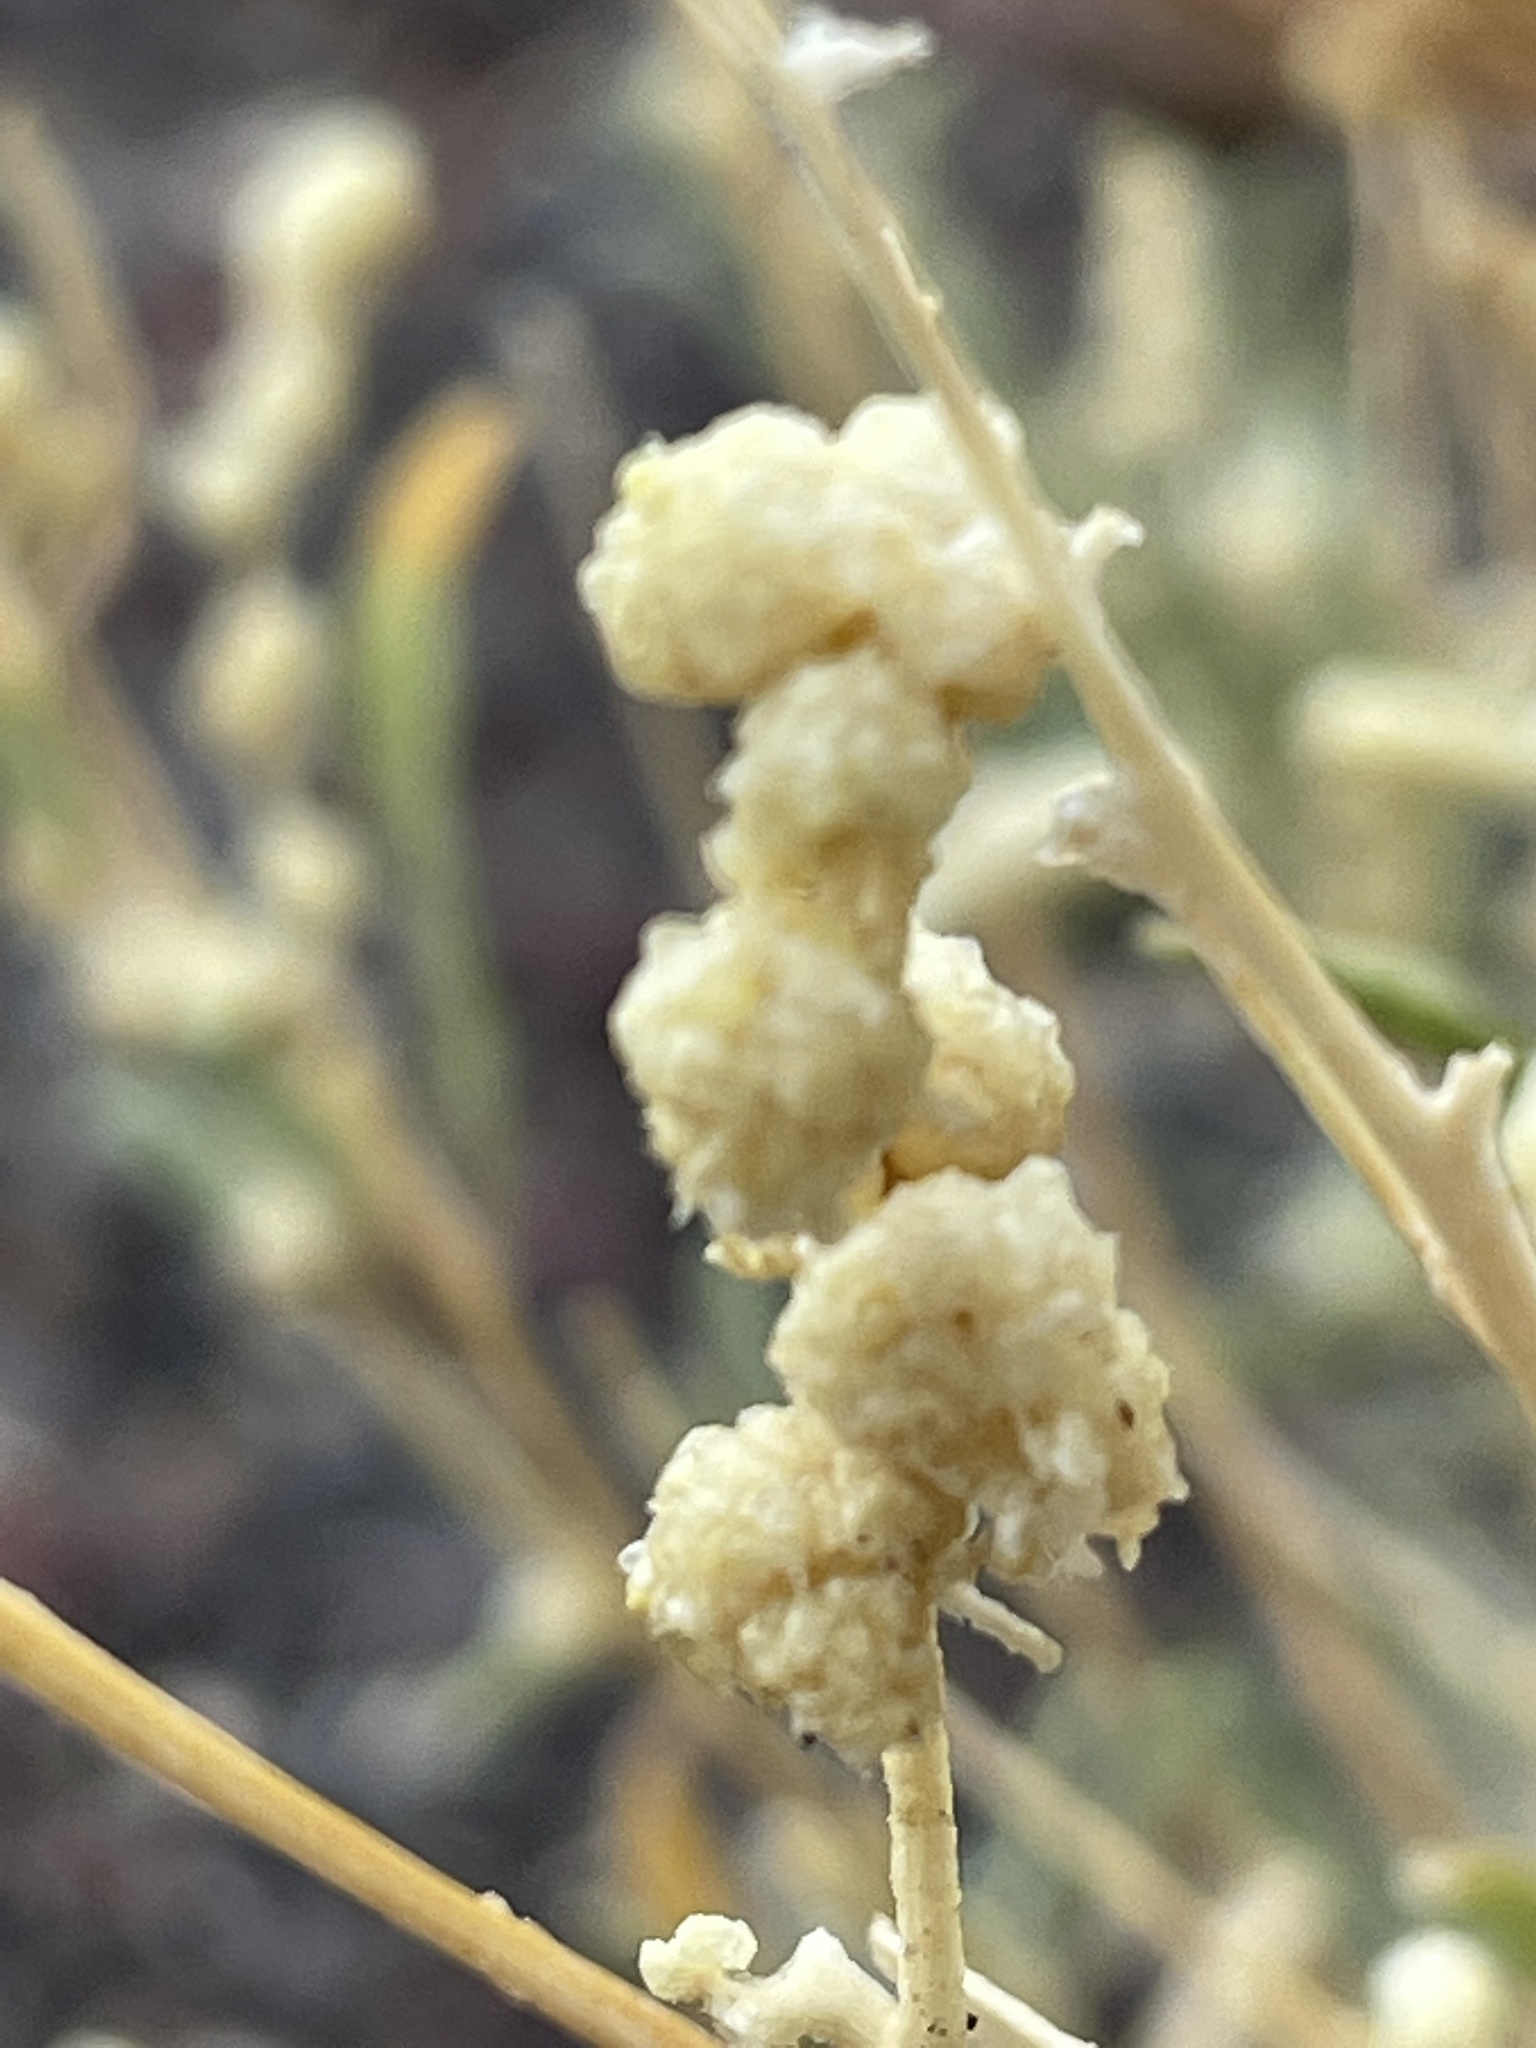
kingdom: Plantae
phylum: Tracheophyta
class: Magnoliopsida
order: Caryophyllales
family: Amaranthaceae
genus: Atriplex
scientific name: Atriplex canescens
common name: Four-wing saltbush
